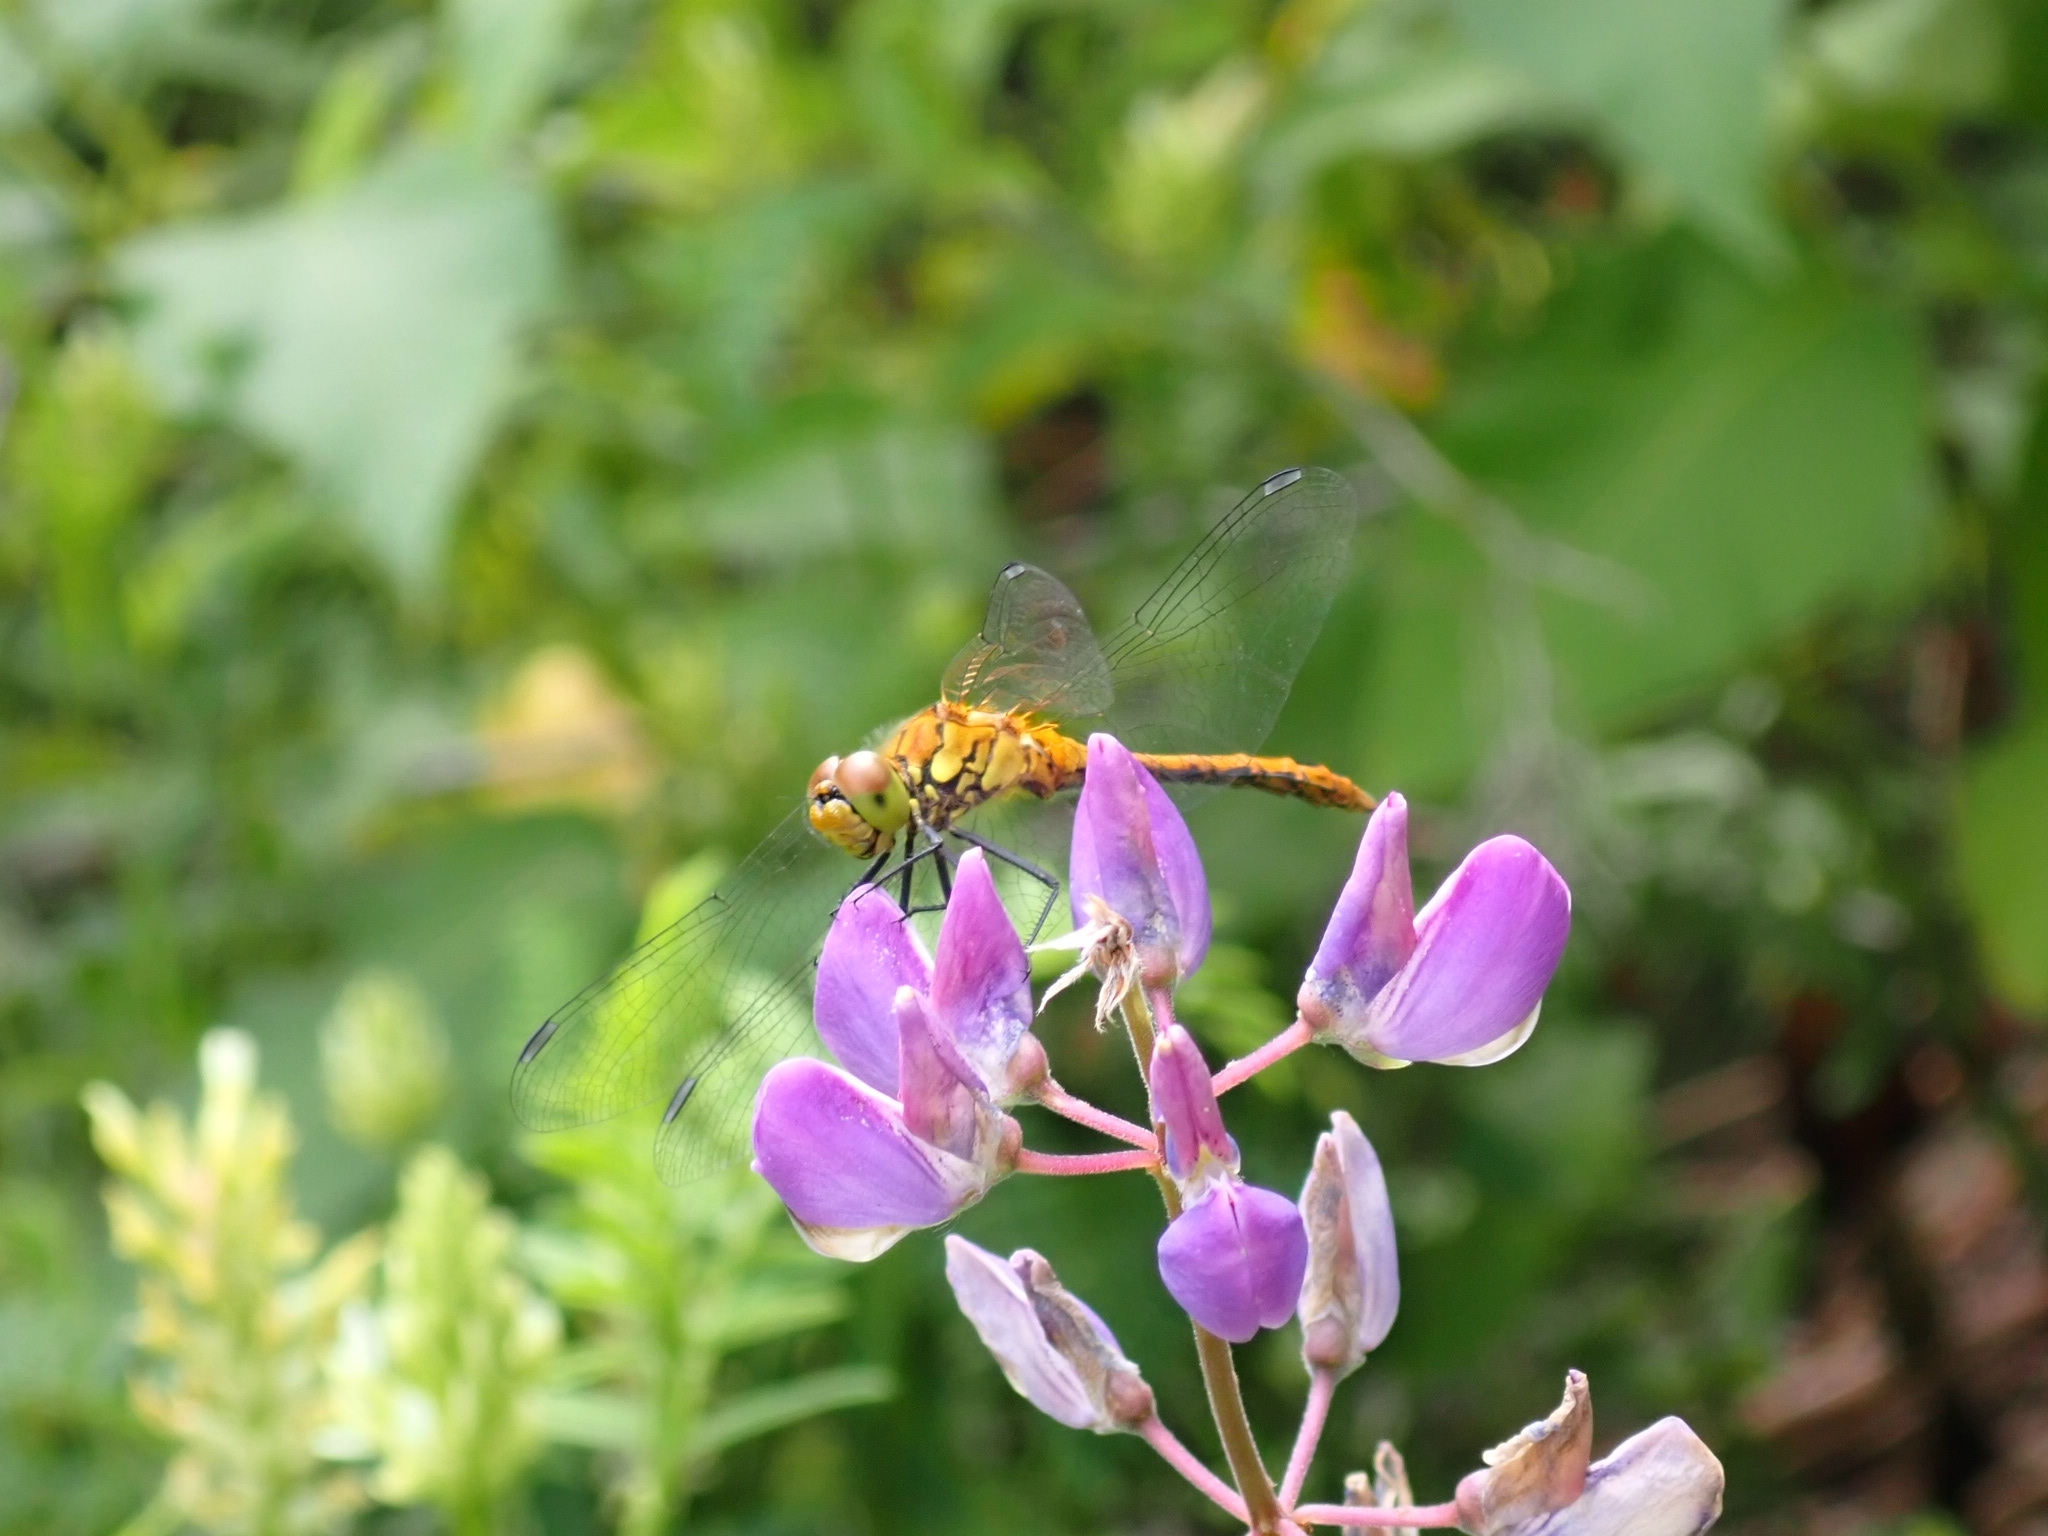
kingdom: Animalia
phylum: Arthropoda
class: Insecta
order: Odonata
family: Libellulidae
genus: Sympetrum
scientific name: Sympetrum sanguineum
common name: Ruddy darter
